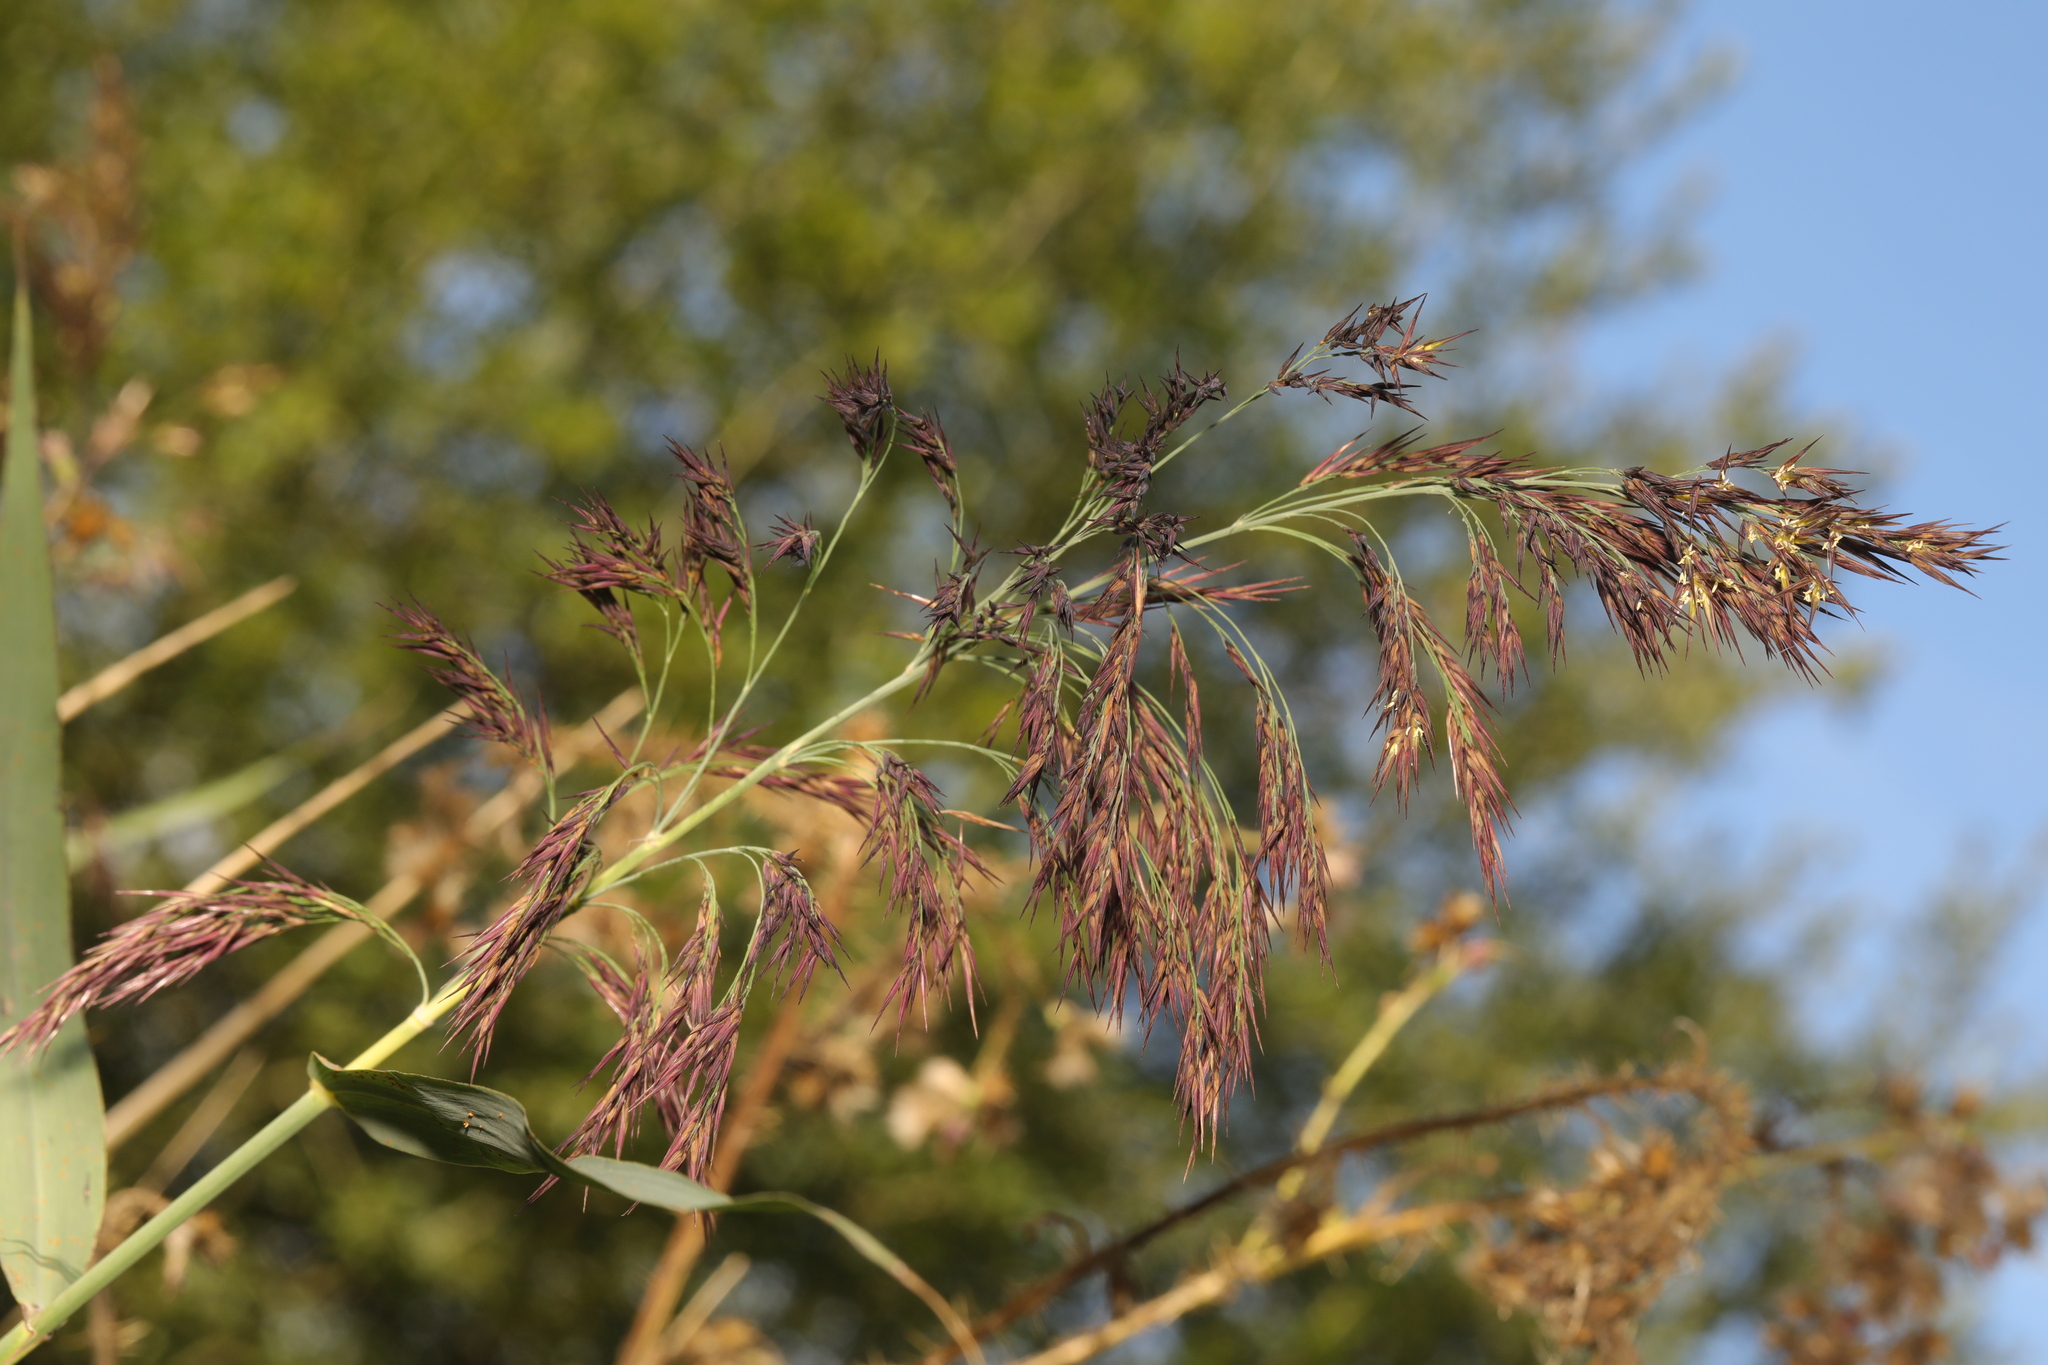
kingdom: Plantae
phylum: Tracheophyta
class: Liliopsida
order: Poales
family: Poaceae
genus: Phragmites
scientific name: Phragmites australis
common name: Common reed
